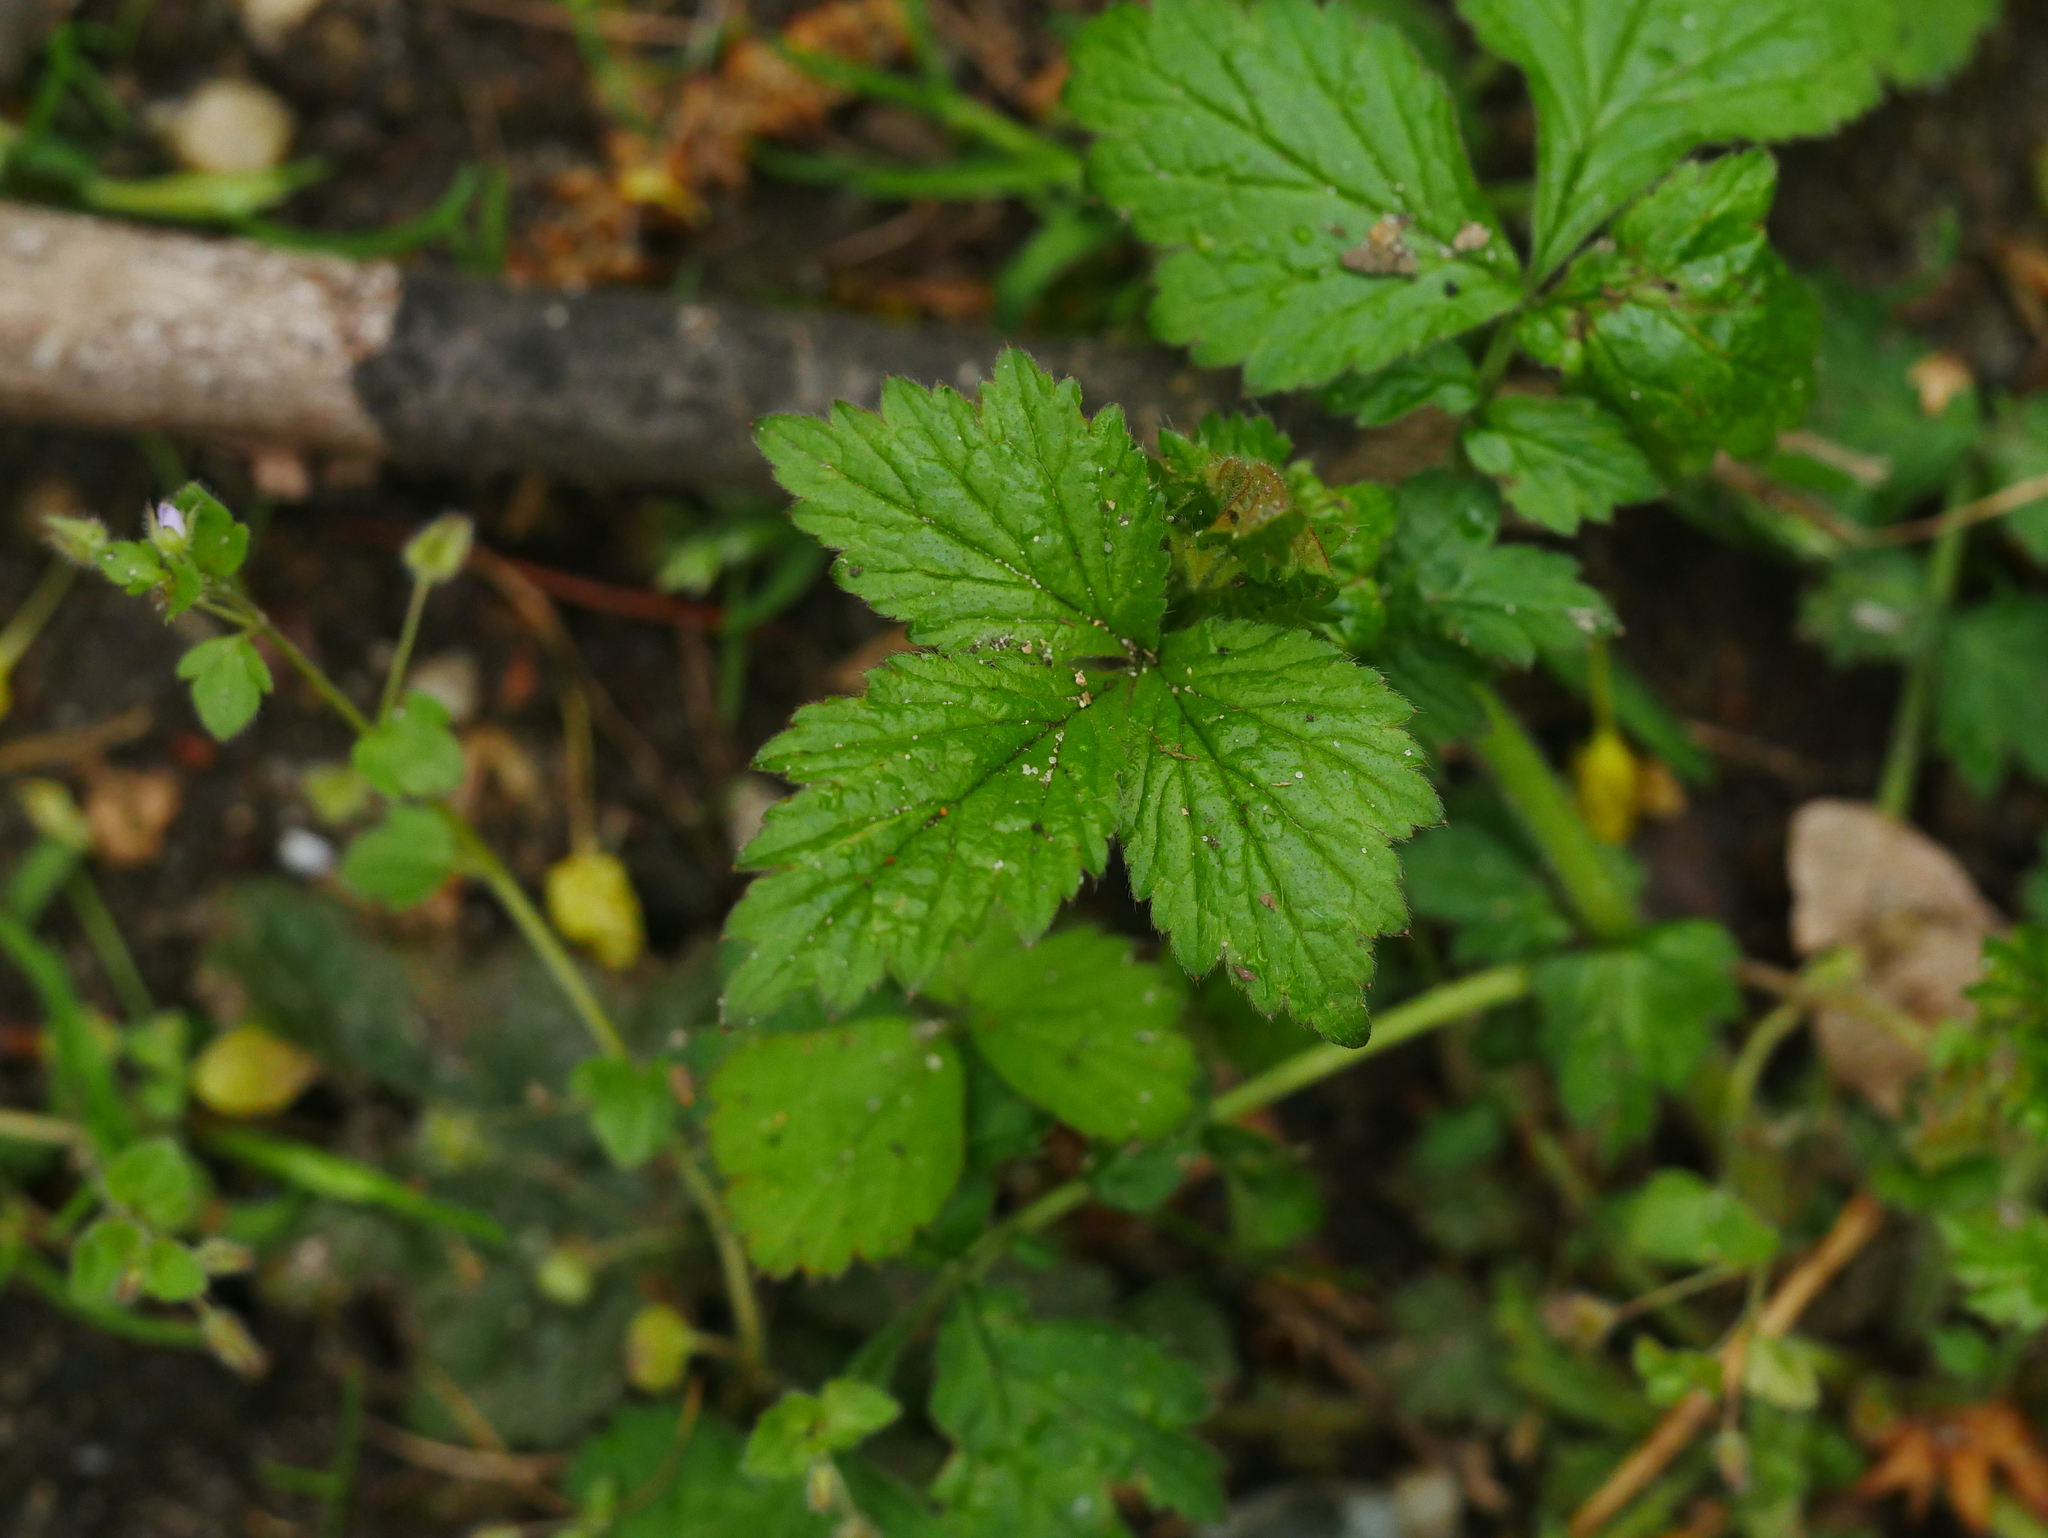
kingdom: Plantae
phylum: Tracheophyta
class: Magnoliopsida
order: Rosales
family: Rosaceae
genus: Geum
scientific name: Geum urbanum
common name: Wood avens
